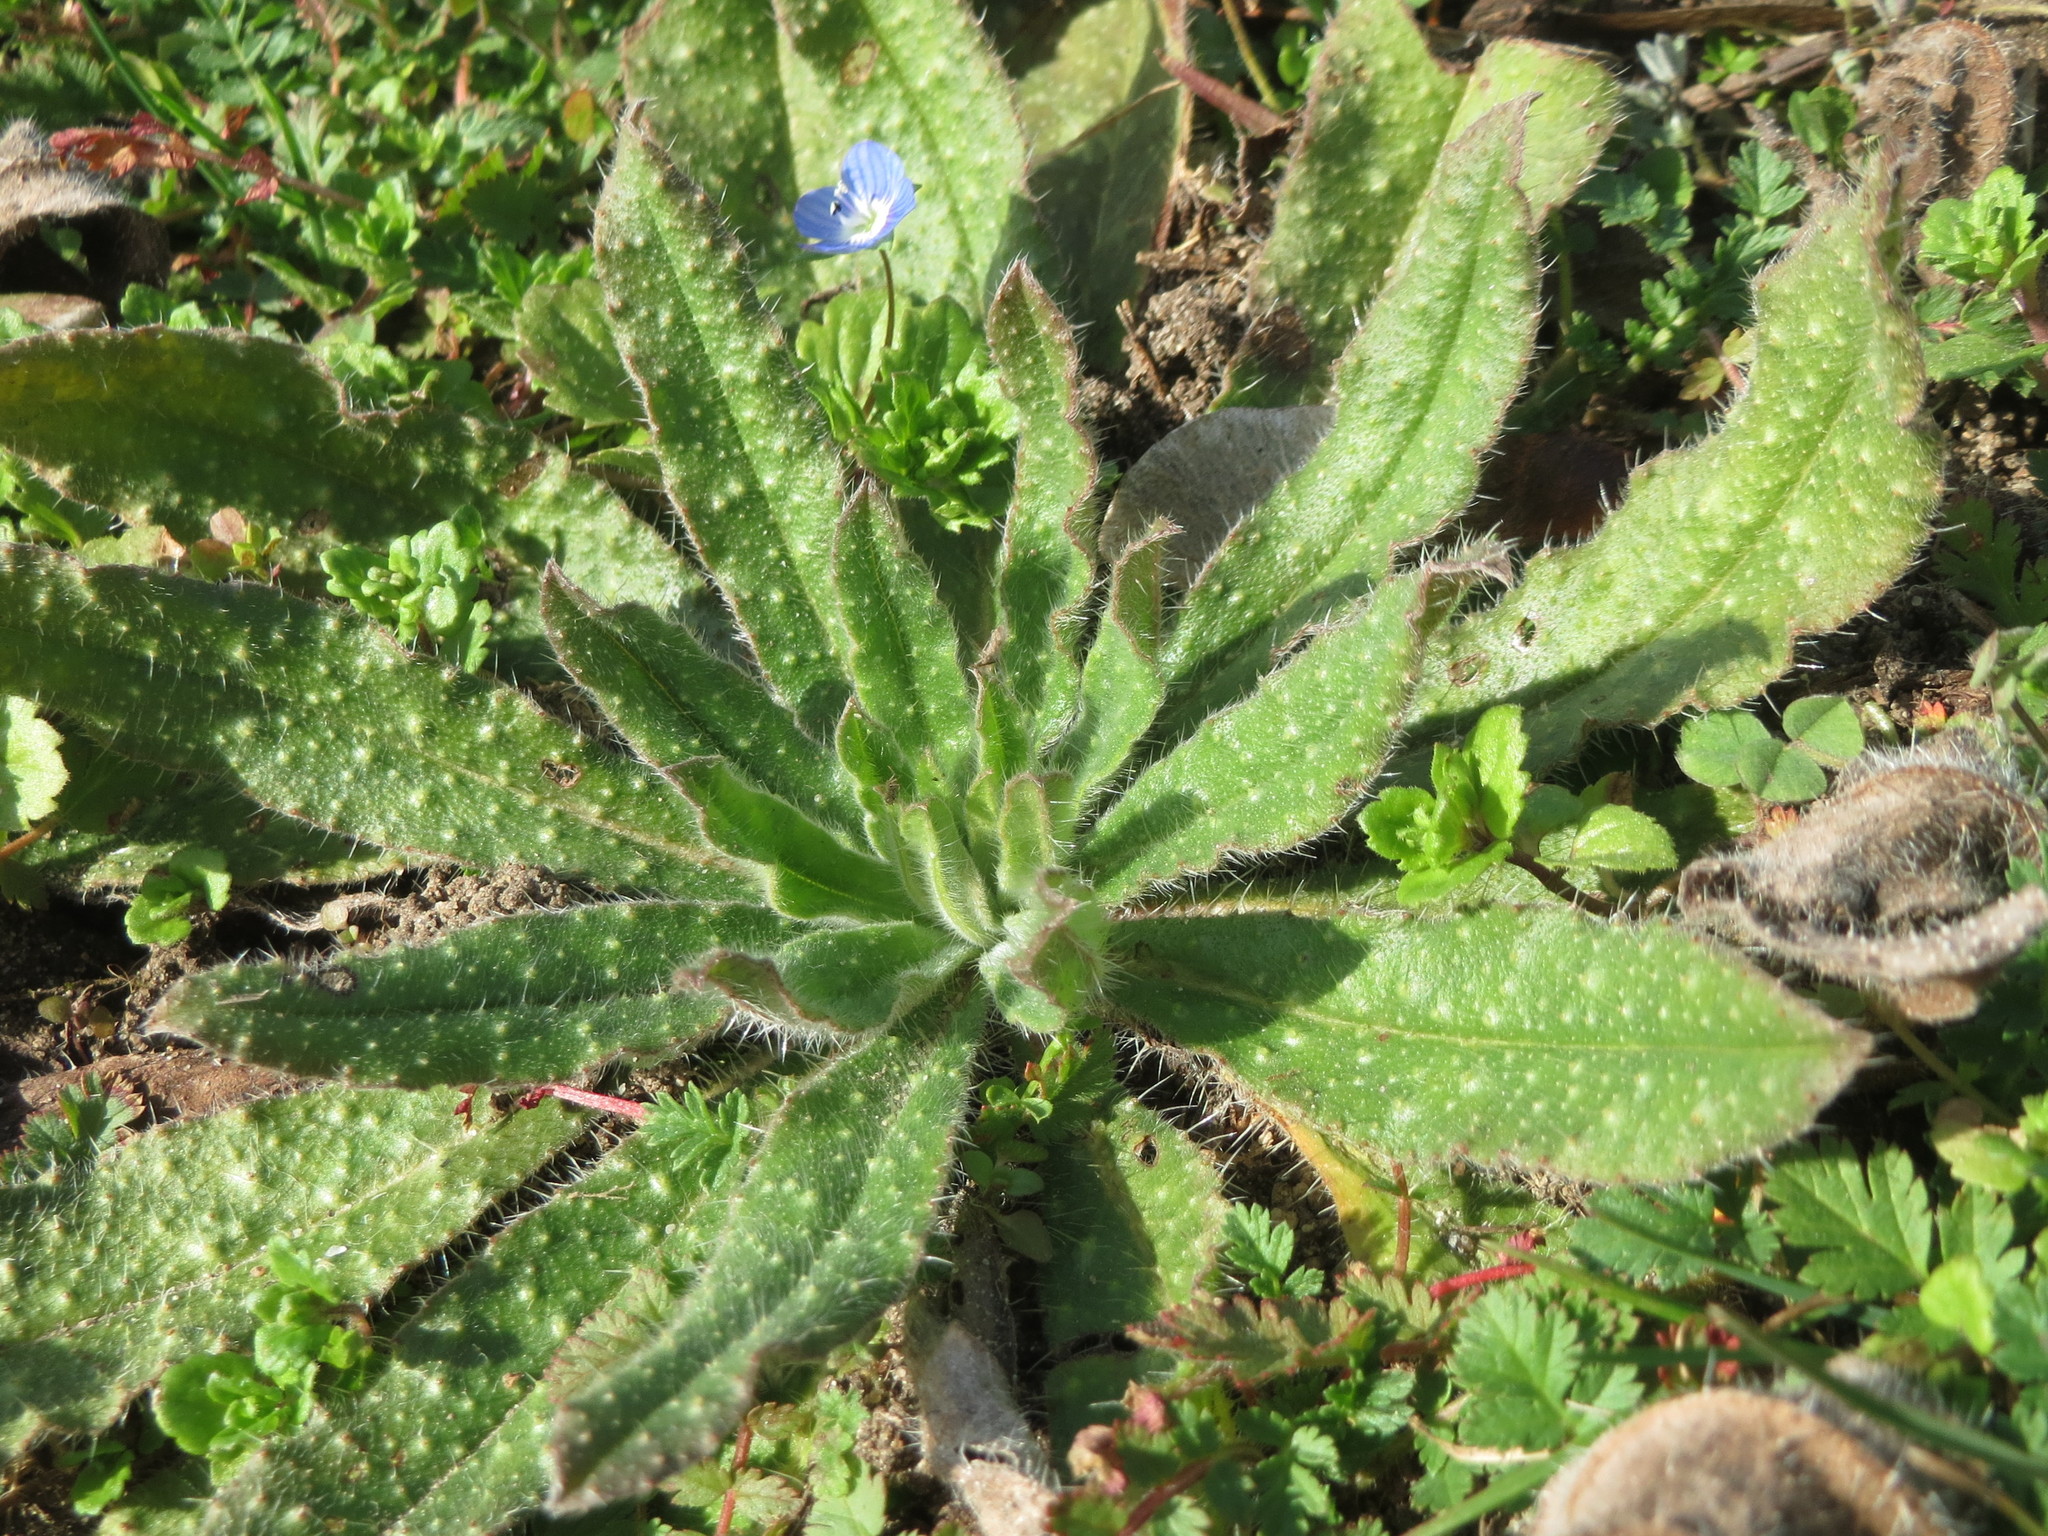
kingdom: Plantae
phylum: Tracheophyta
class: Magnoliopsida
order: Boraginales
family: Boraginaceae
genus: Lycopsis
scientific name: Lycopsis arvensis
